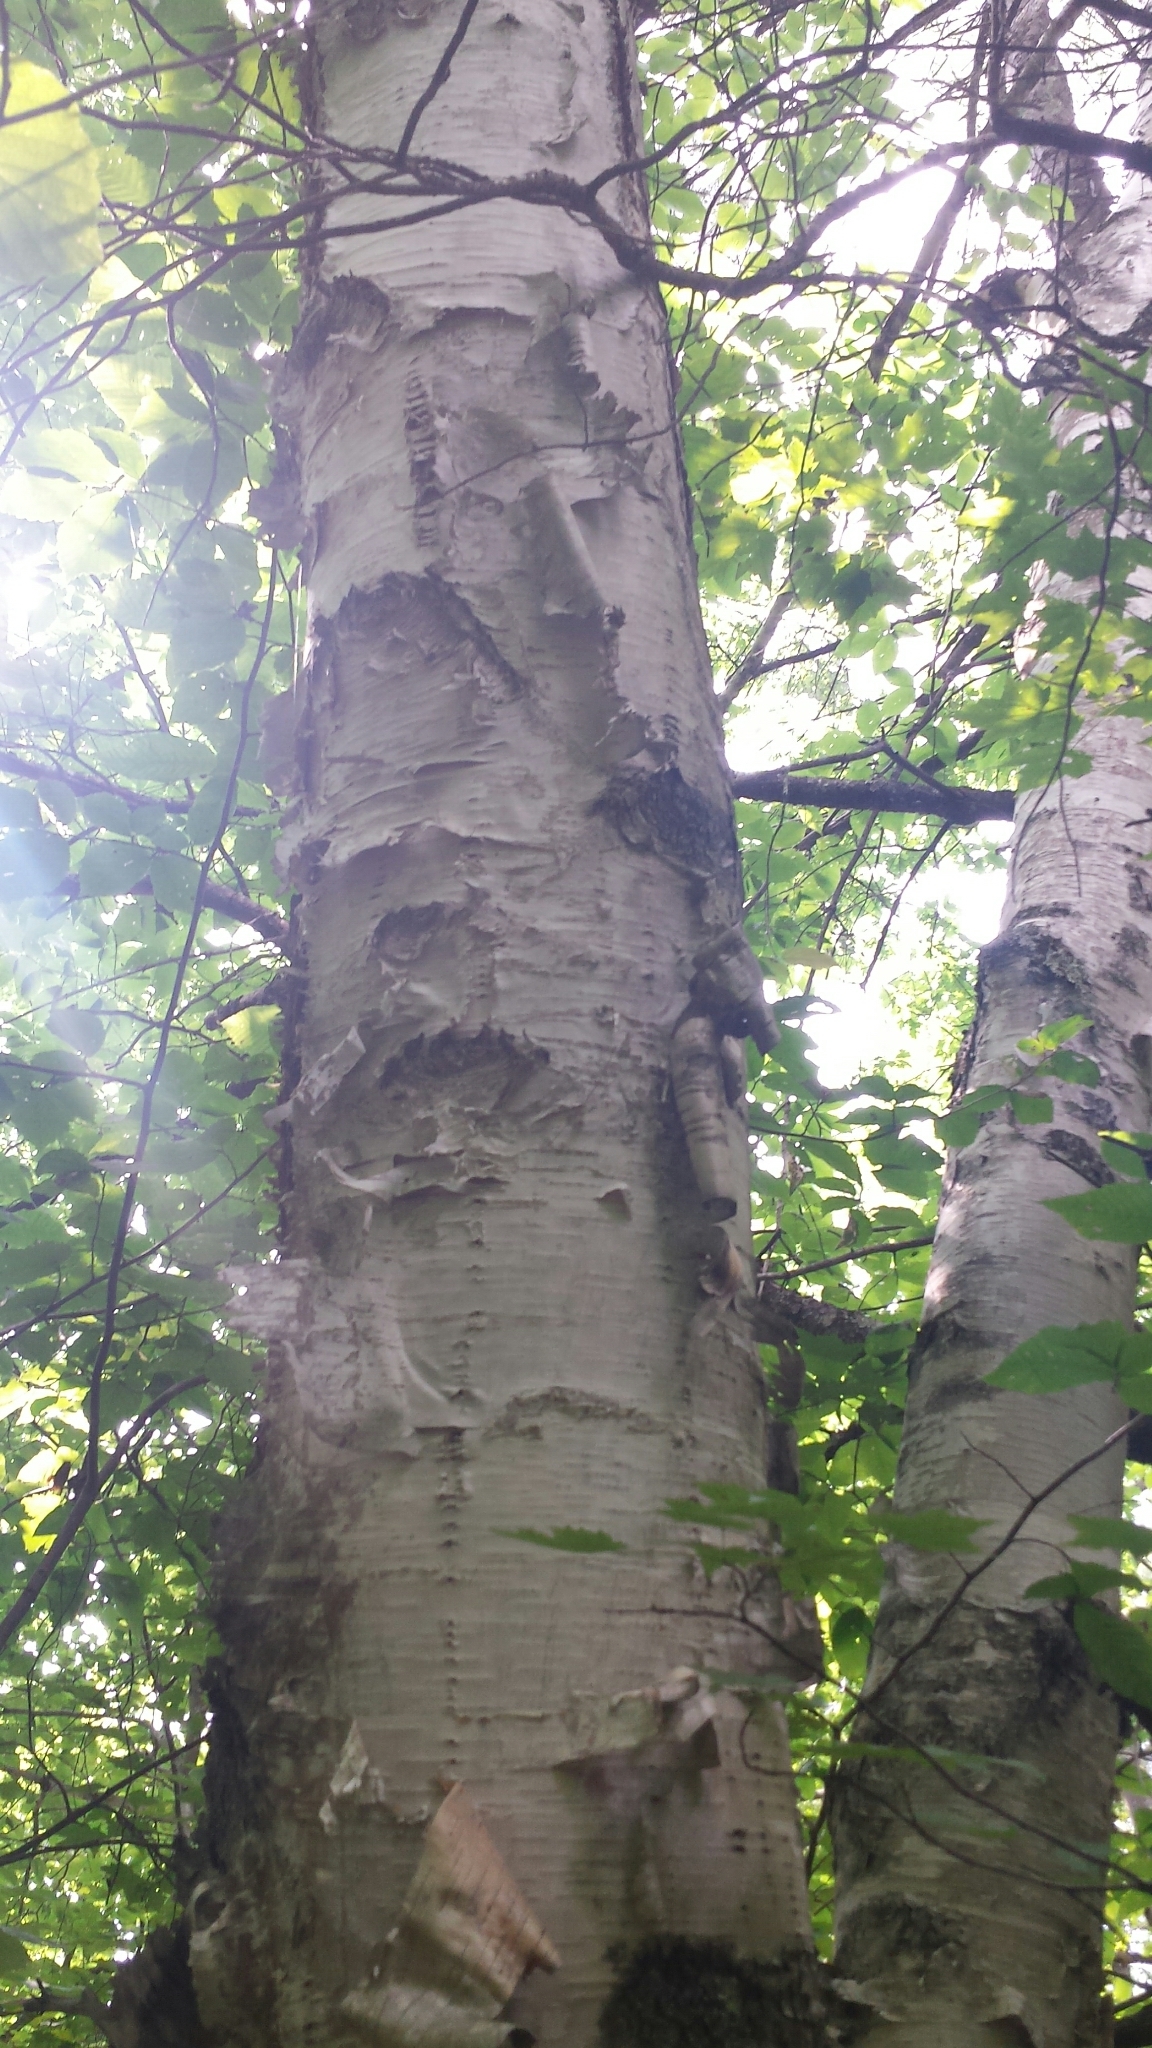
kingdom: Plantae
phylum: Tracheophyta
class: Magnoliopsida
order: Fagales
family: Betulaceae
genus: Betula
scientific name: Betula papyrifera
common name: Paper birch
